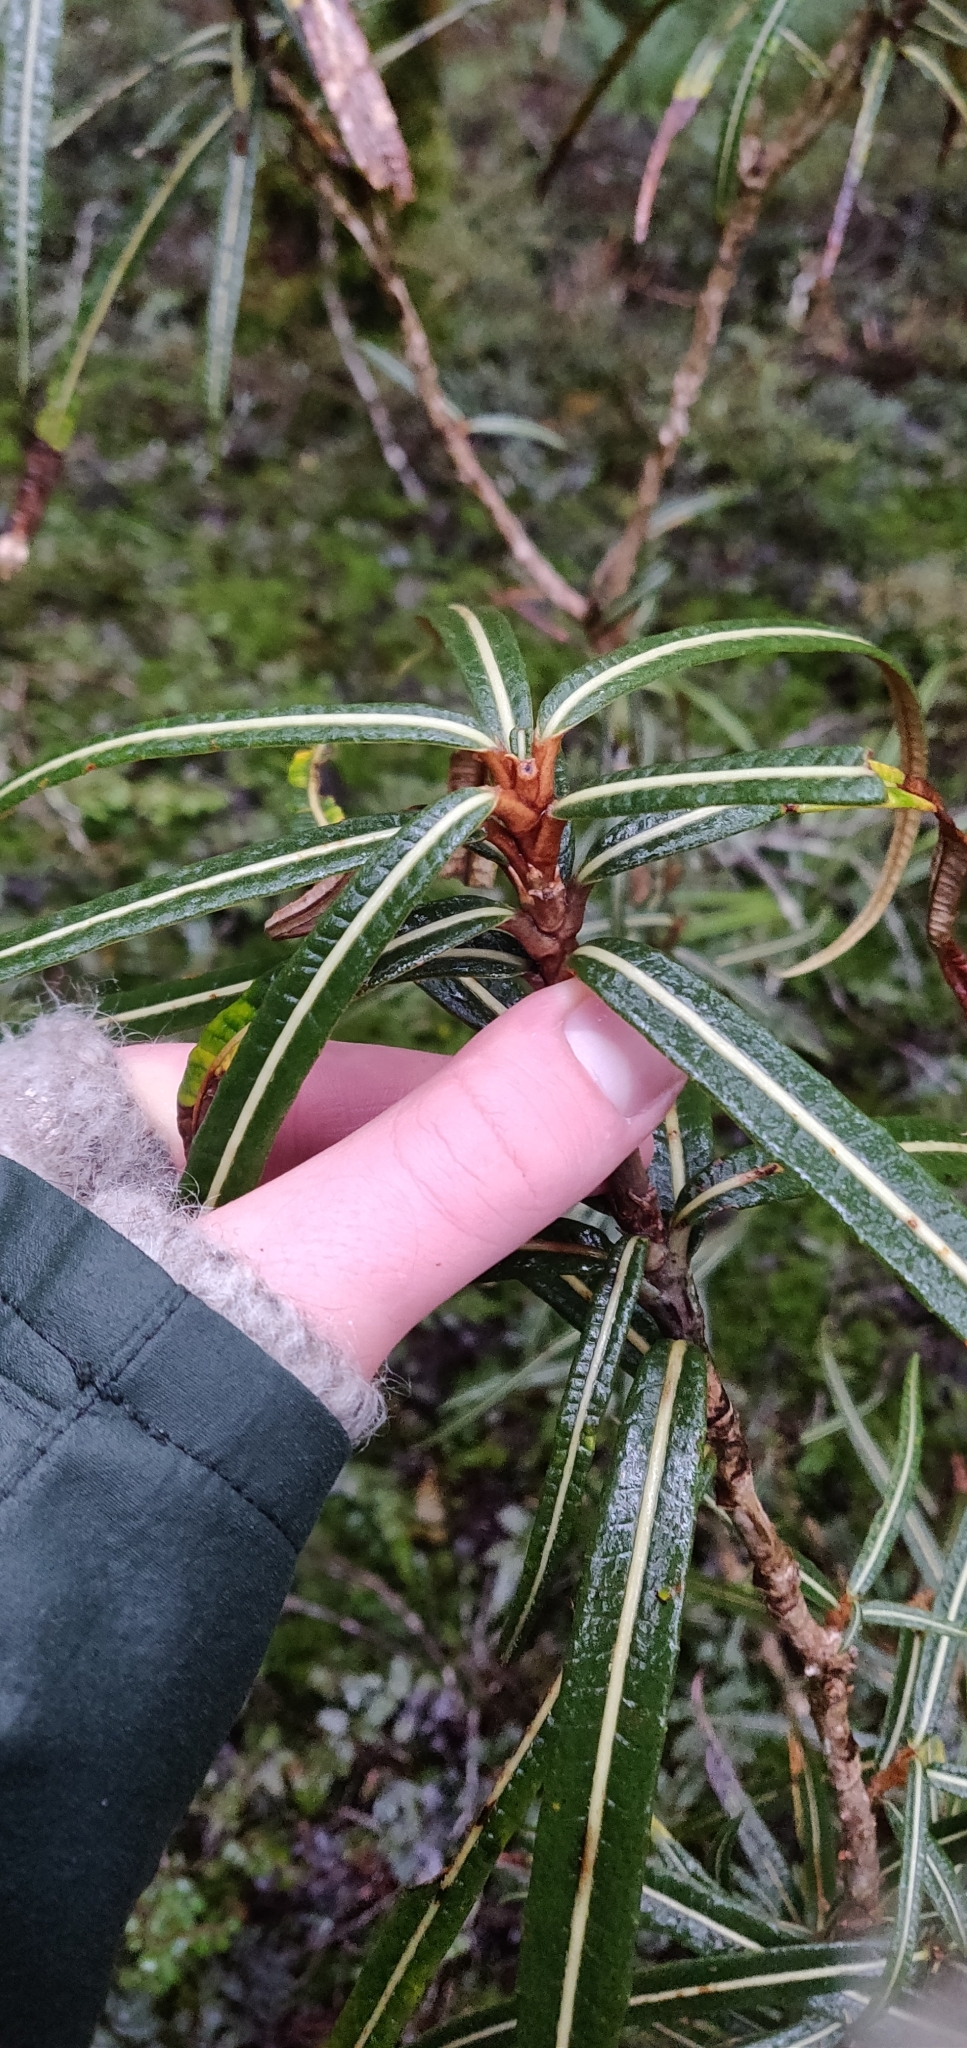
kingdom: Plantae
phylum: Tracheophyta
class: Magnoliopsida
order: Asterales
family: Asteraceae
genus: Olearia
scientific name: Olearia lacunosa
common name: Lancewood tree daisy
